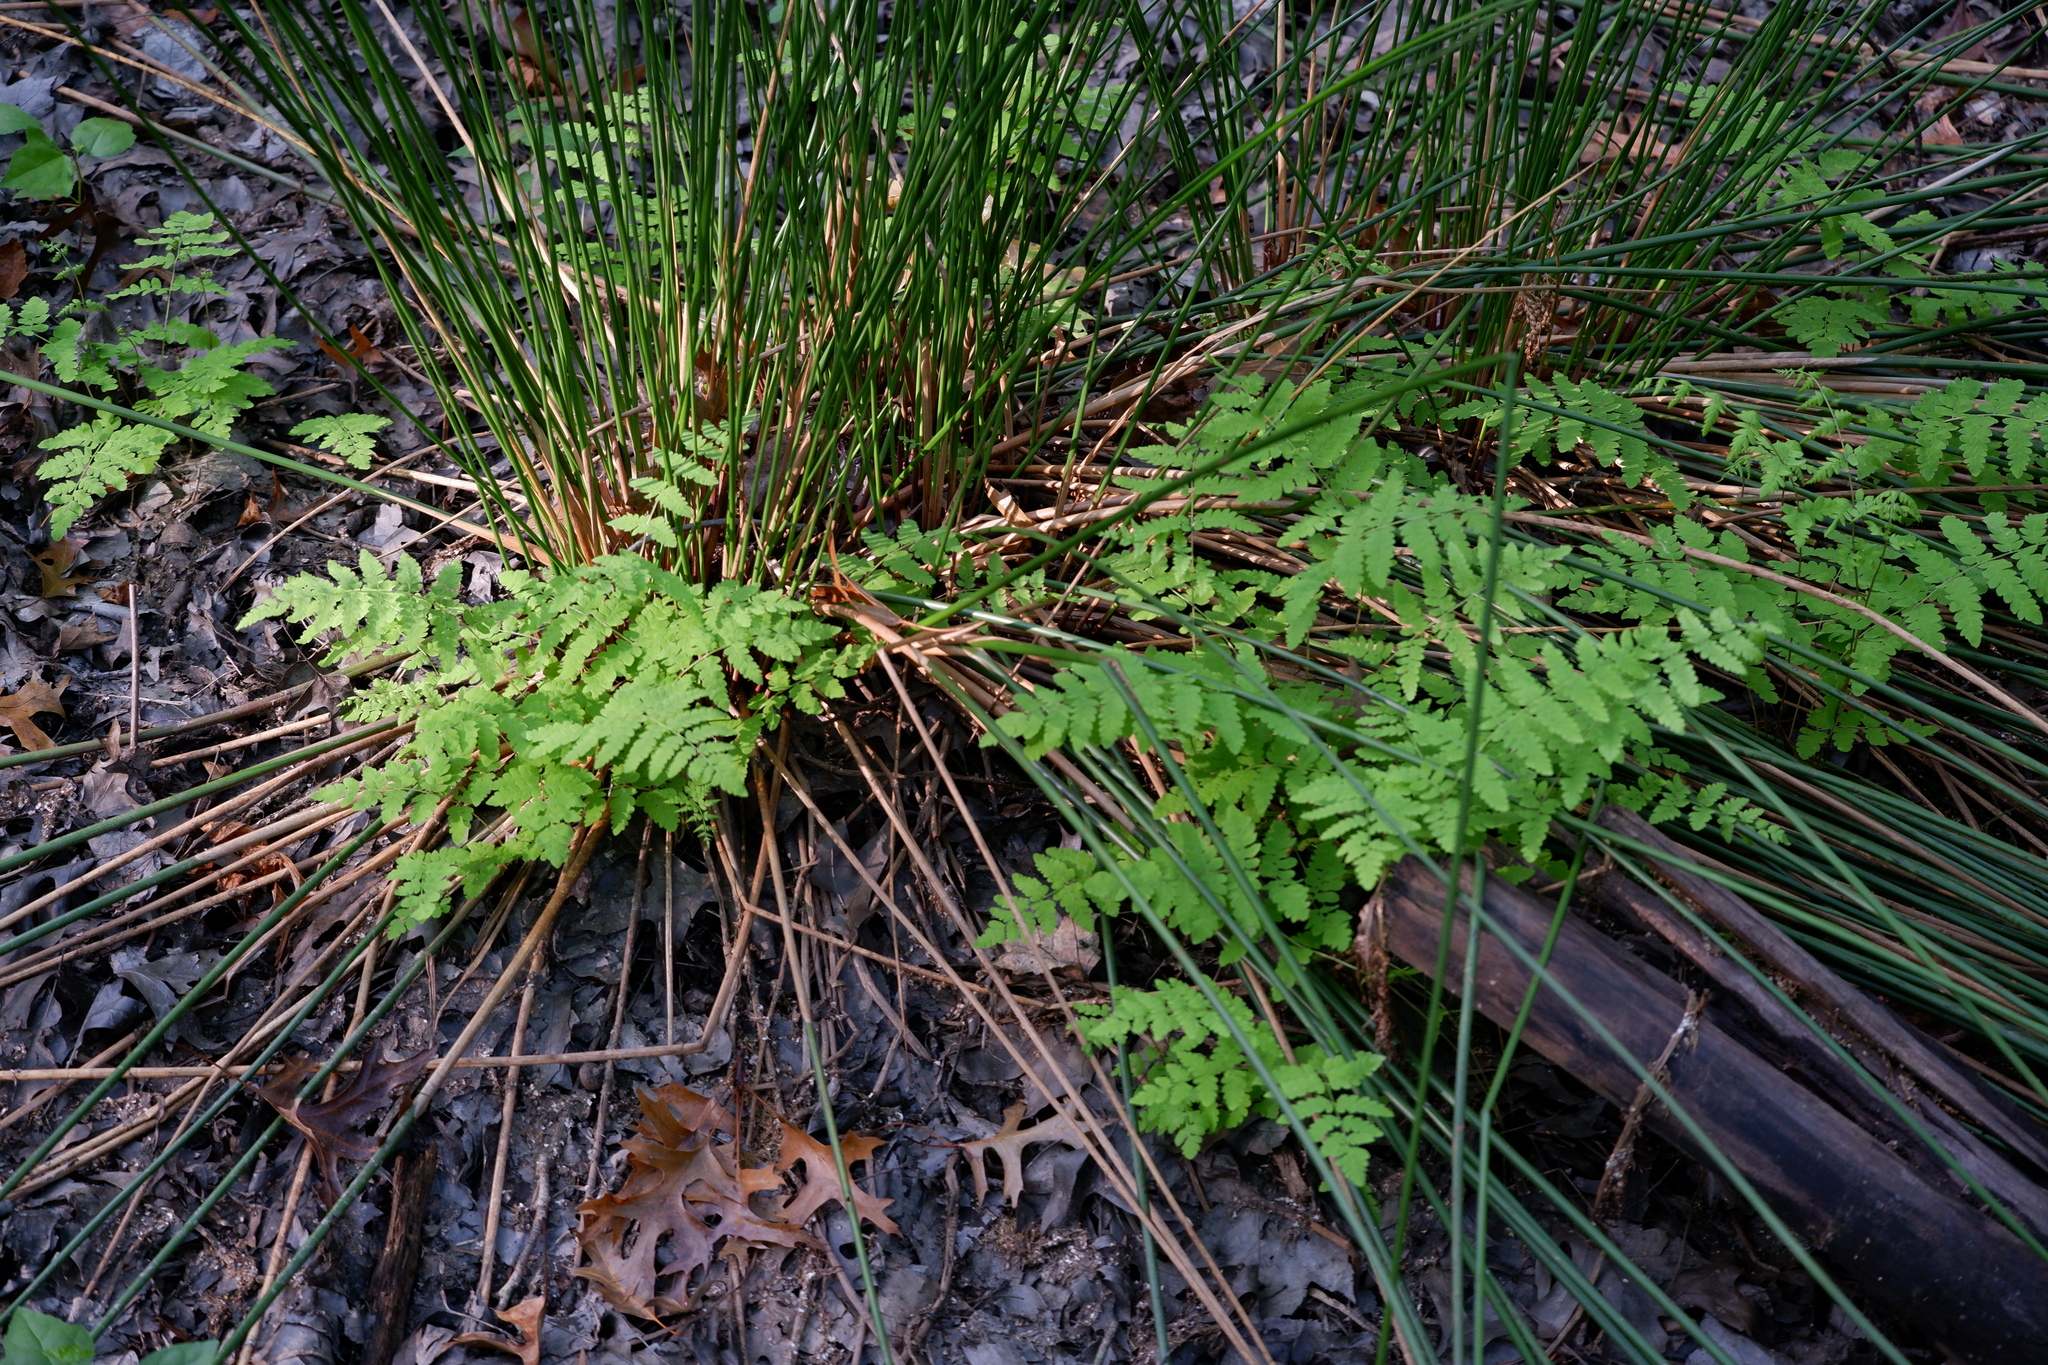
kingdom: Plantae
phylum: Tracheophyta
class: Polypodiopsida
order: Polypodiales
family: Thelypteridaceae
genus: Thelypteris
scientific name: Thelypteris palustris
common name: Marsh fern
